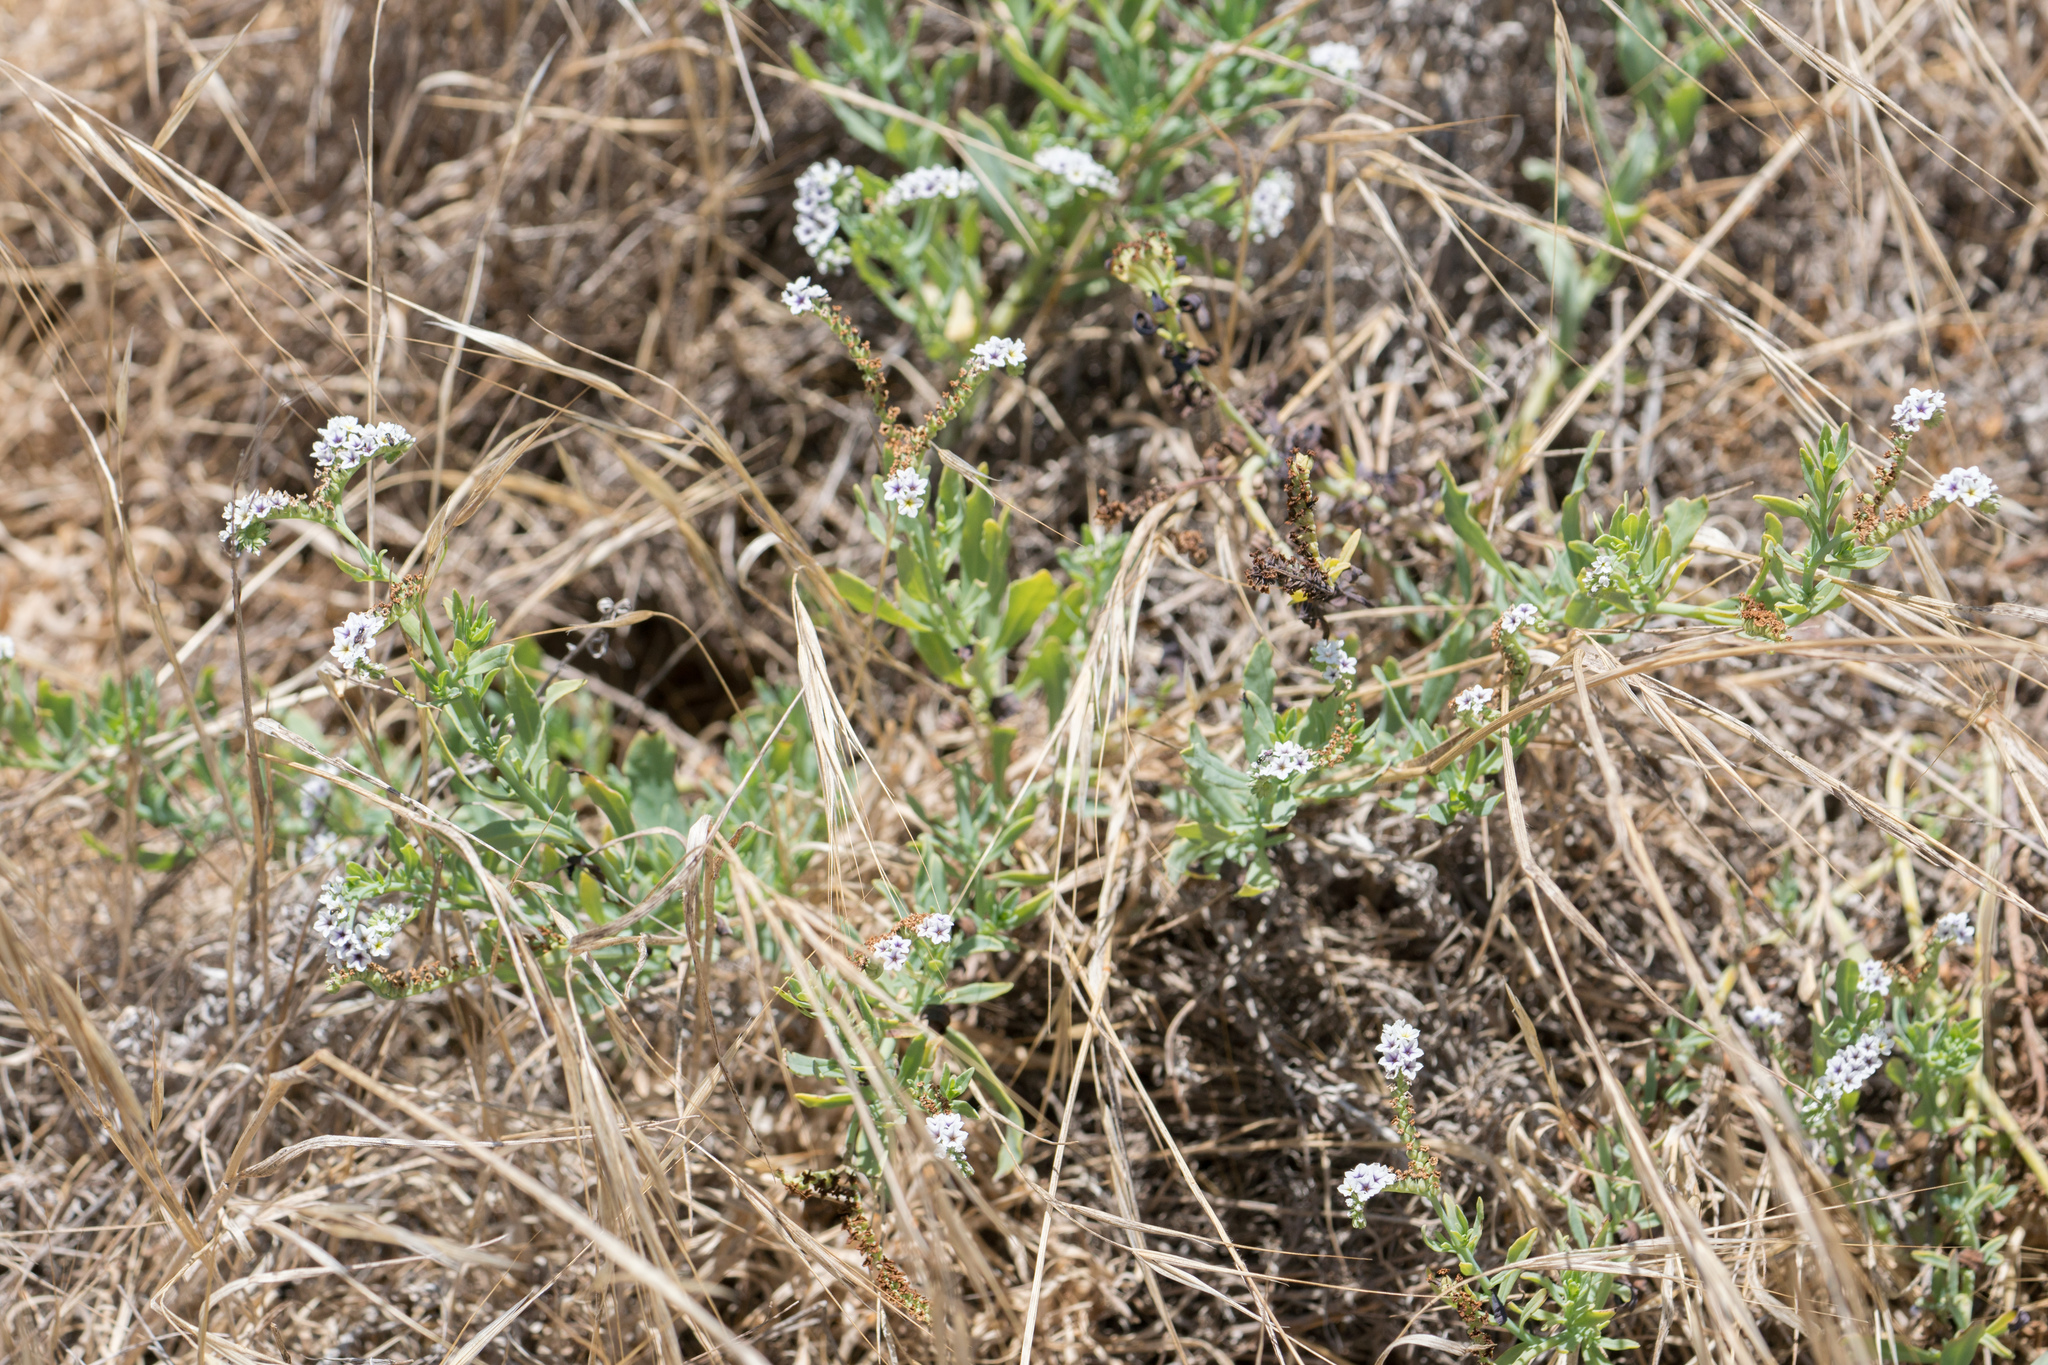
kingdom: Plantae
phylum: Tracheophyta
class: Magnoliopsida
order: Boraginales
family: Heliotropiaceae
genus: Heliotropium
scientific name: Heliotropium curassavicum
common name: Seaside heliotrope
